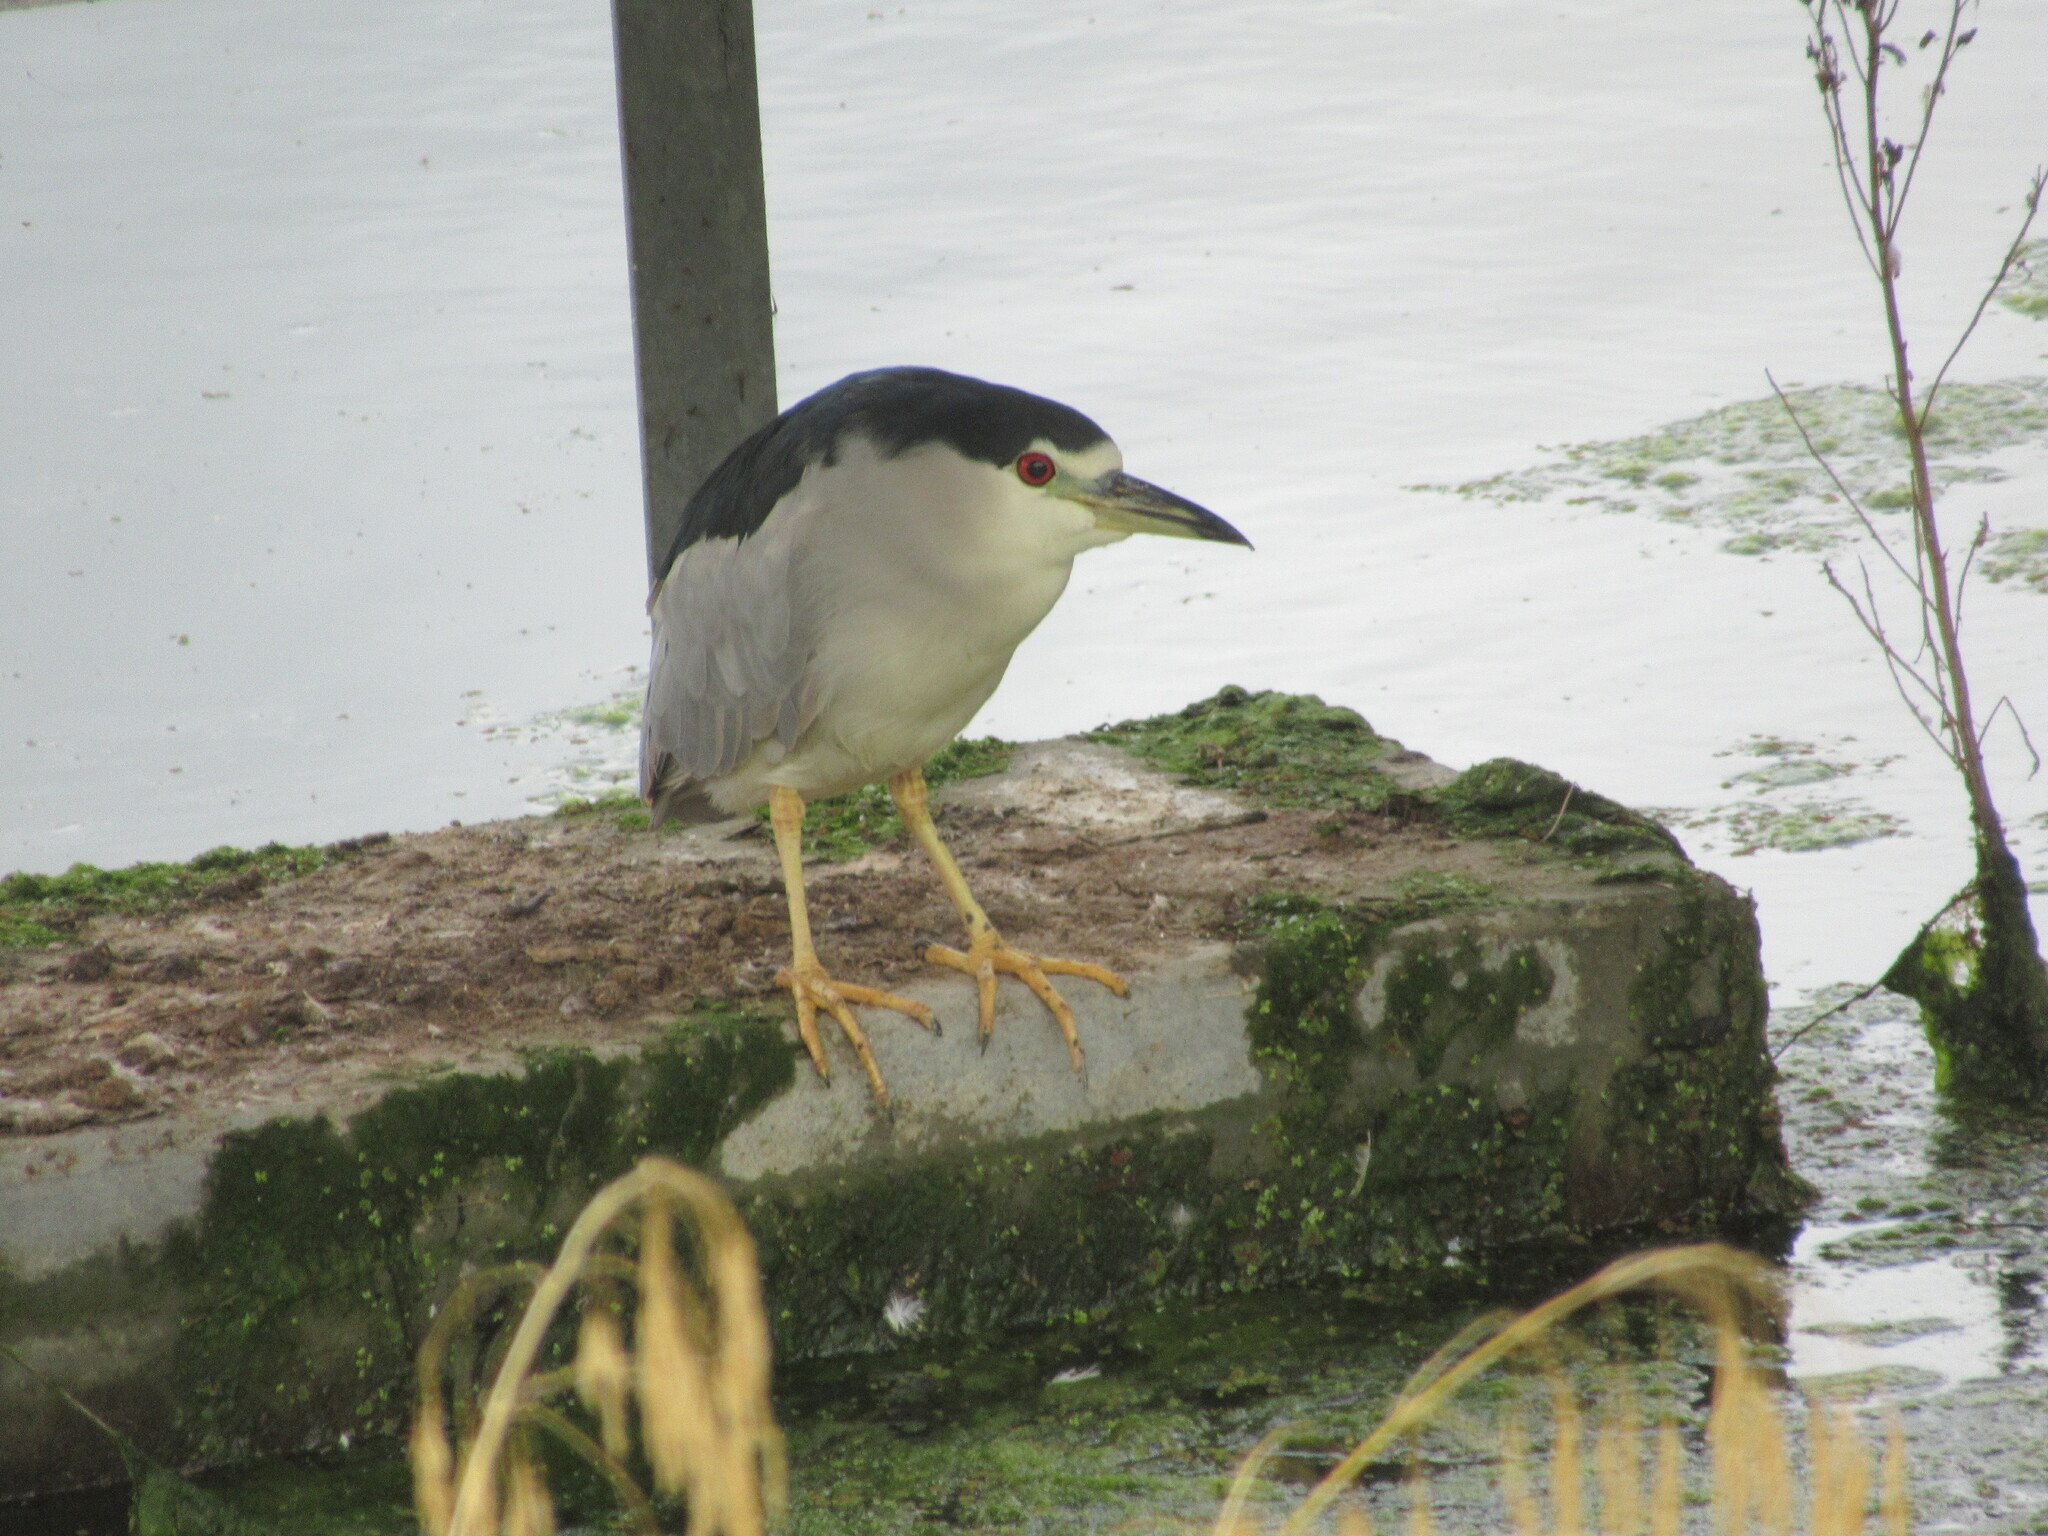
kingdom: Animalia
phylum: Chordata
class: Aves
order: Pelecaniformes
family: Ardeidae
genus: Nycticorax
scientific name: Nycticorax nycticorax
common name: Black-crowned night heron
